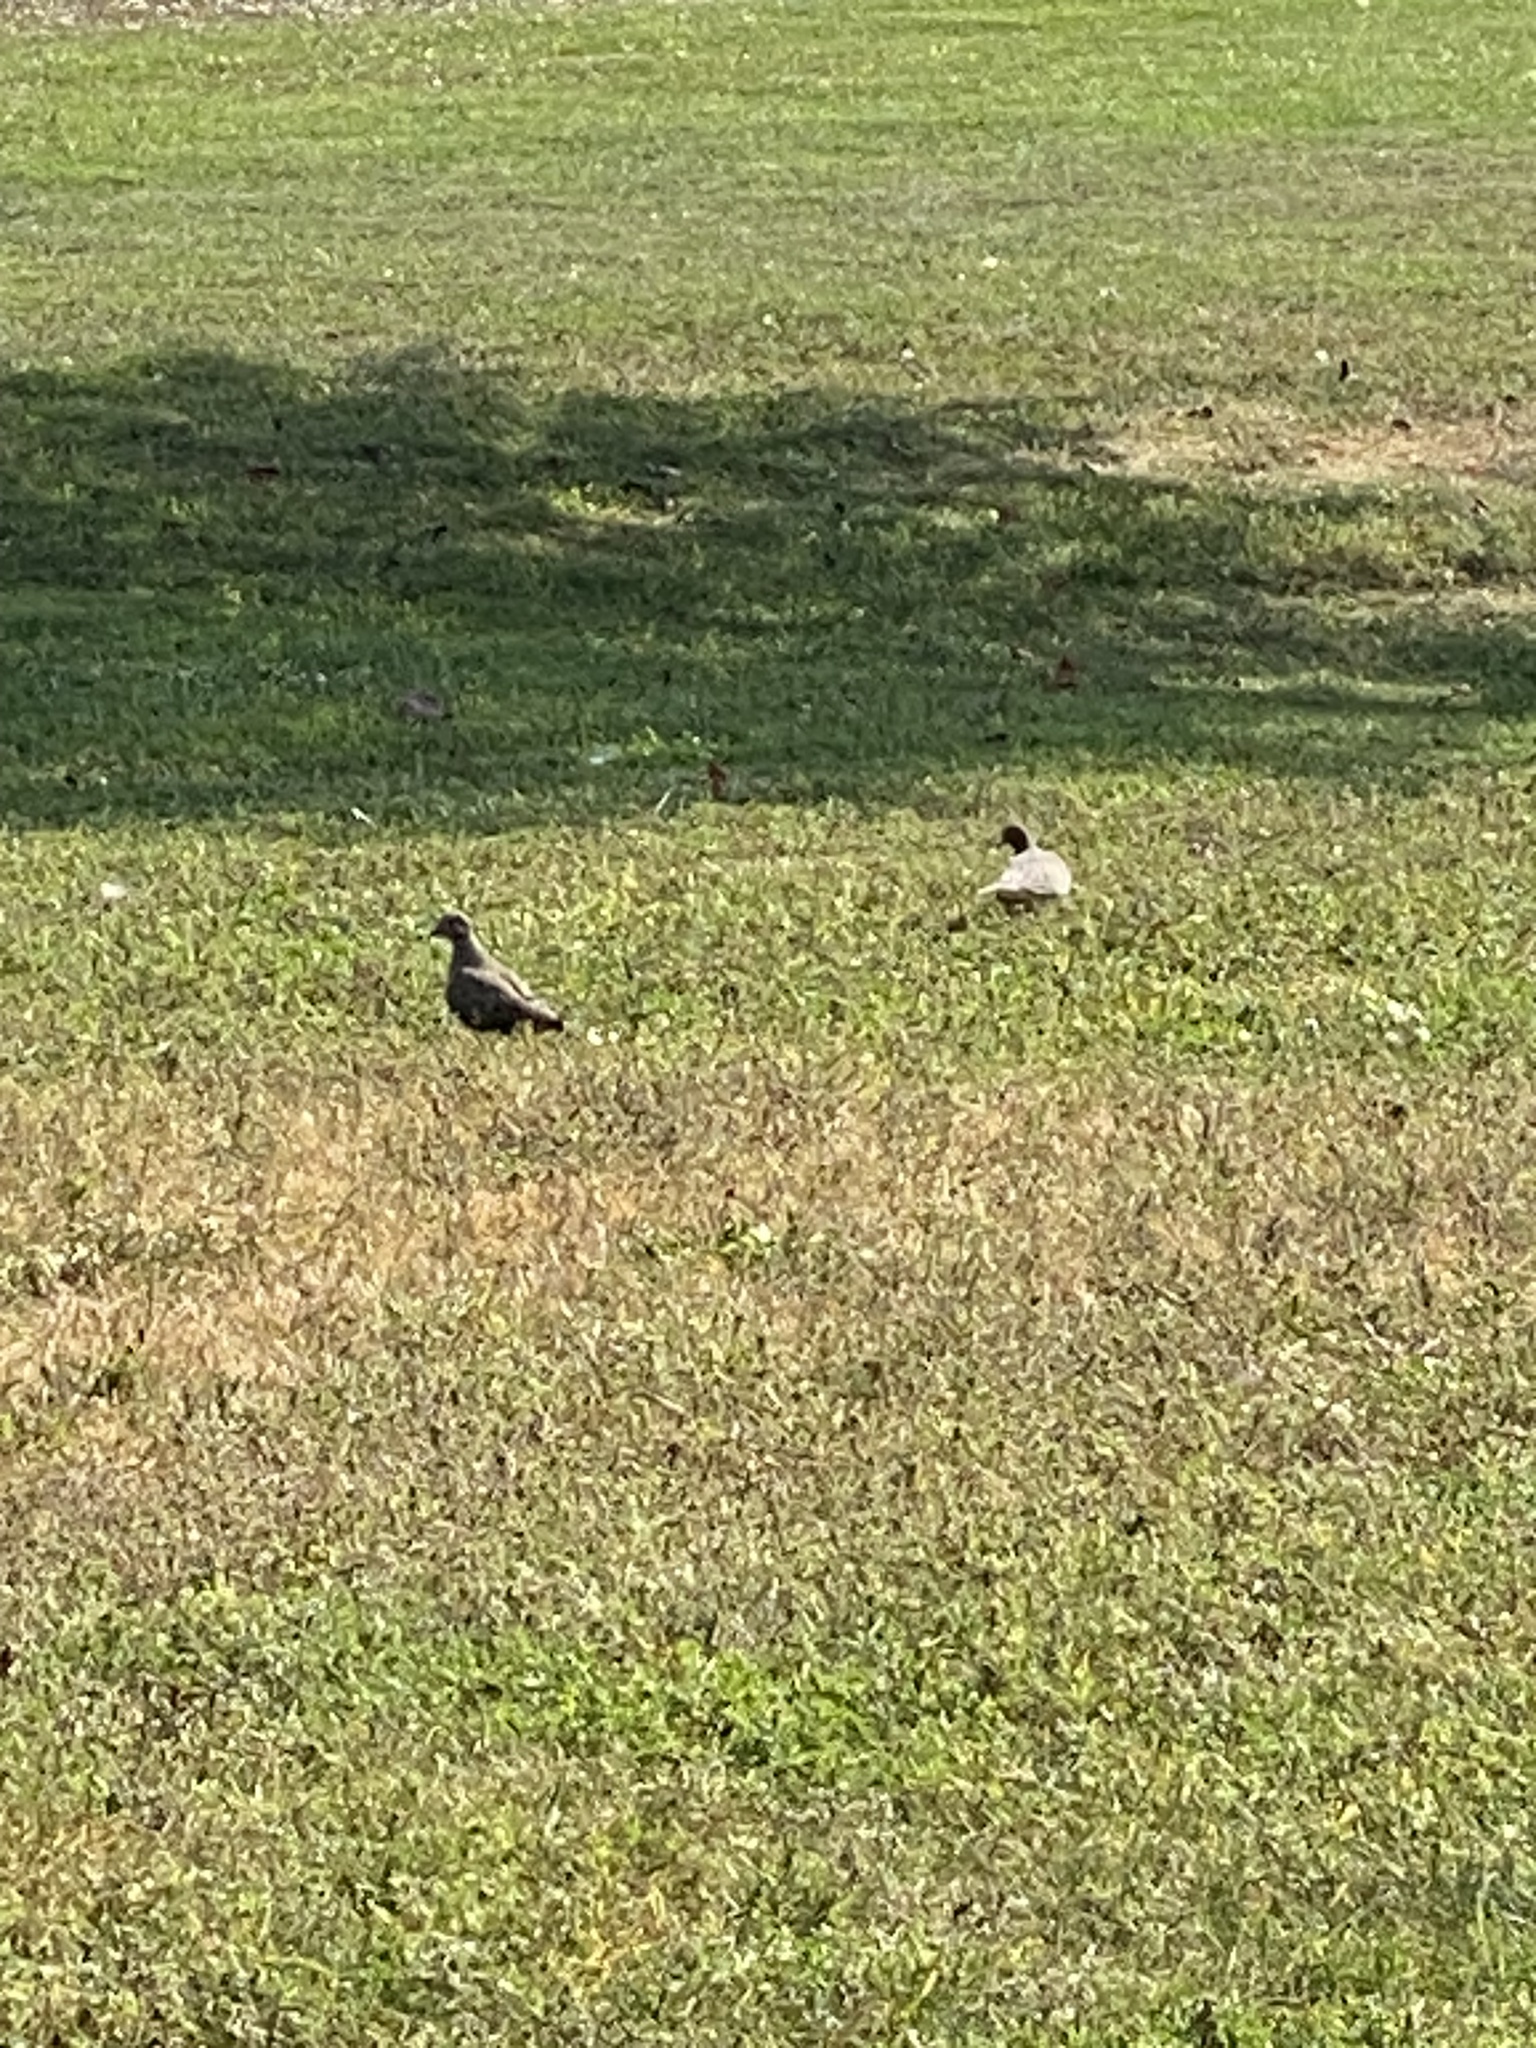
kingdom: Animalia
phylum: Chordata
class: Aves
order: Columbiformes
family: Columbidae
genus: Zenaida
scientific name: Zenaida macroura
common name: Mourning dove
